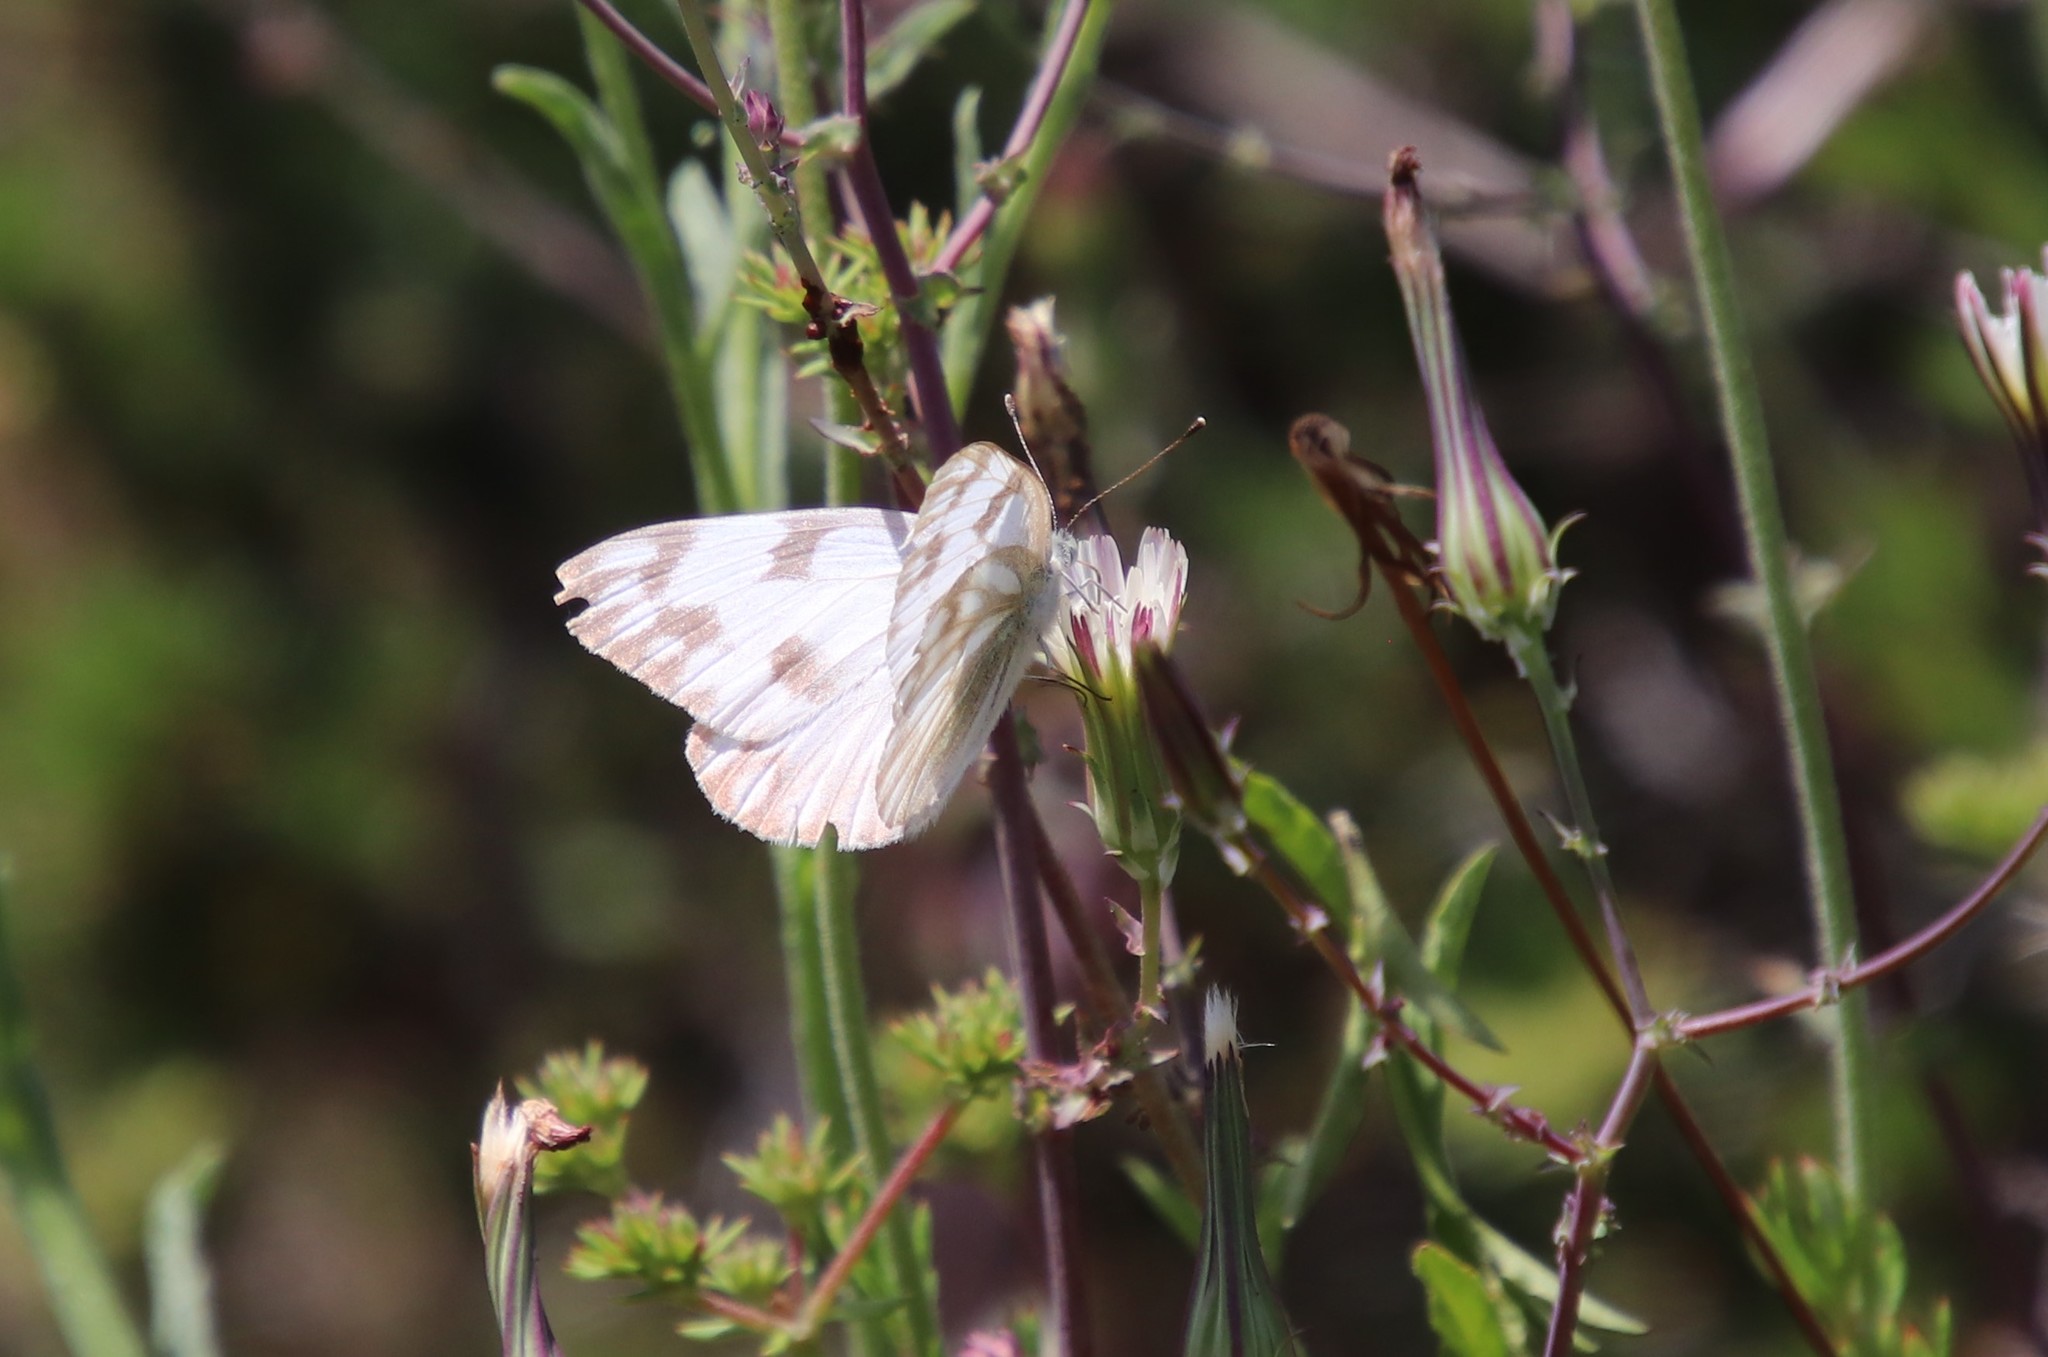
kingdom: Animalia
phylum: Arthropoda
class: Insecta
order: Lepidoptera
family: Pieridae
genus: Pontia
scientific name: Pontia protodice
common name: Checkered white
